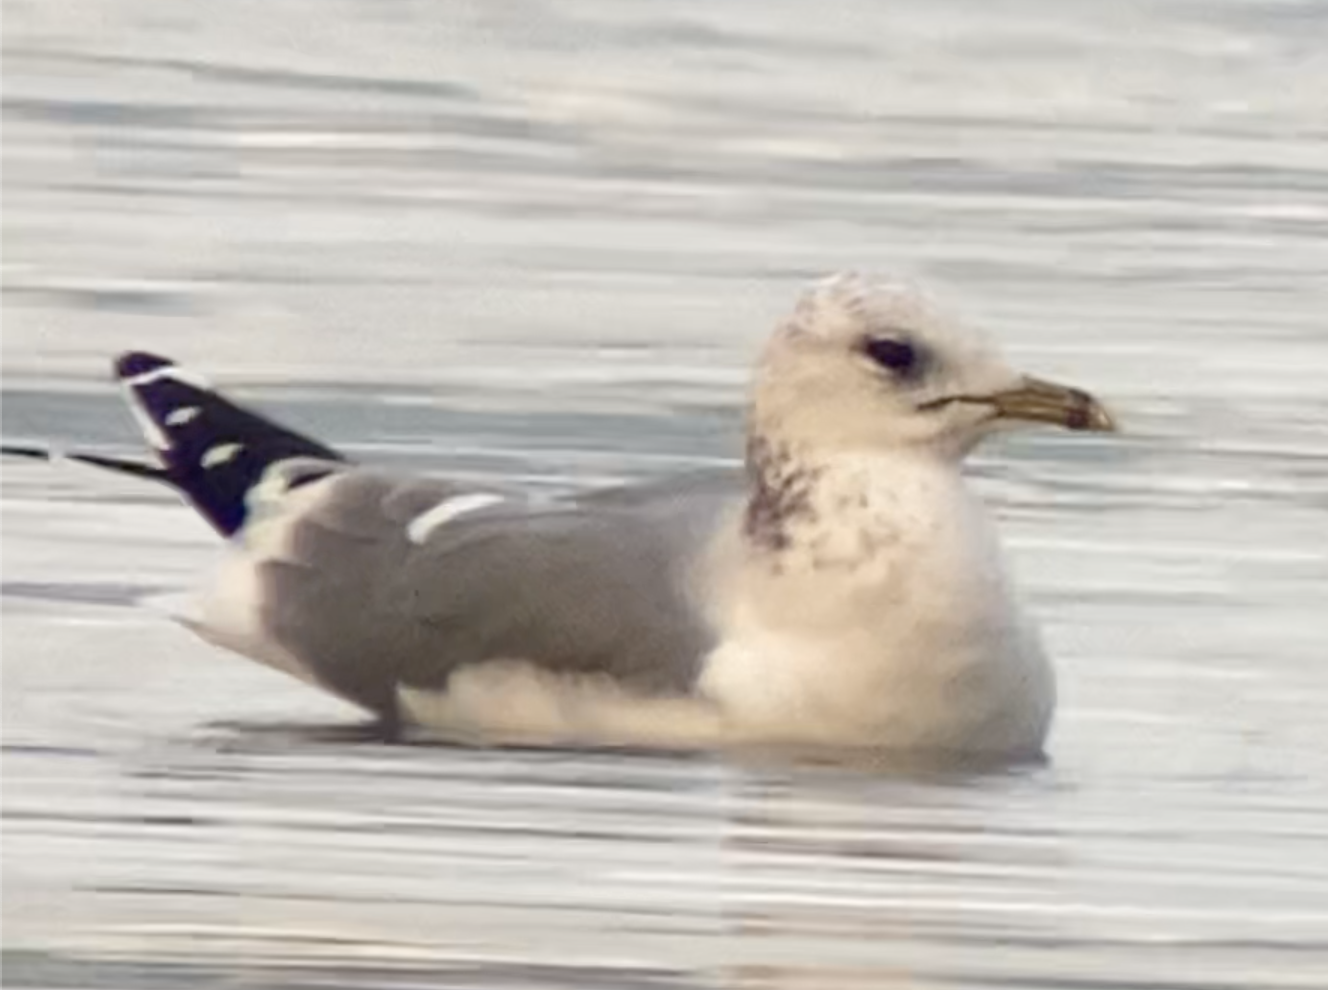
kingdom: Animalia
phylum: Chordata
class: Aves
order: Charadriiformes
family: Laridae
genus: Larus
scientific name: Larus canus
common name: Mew gull
